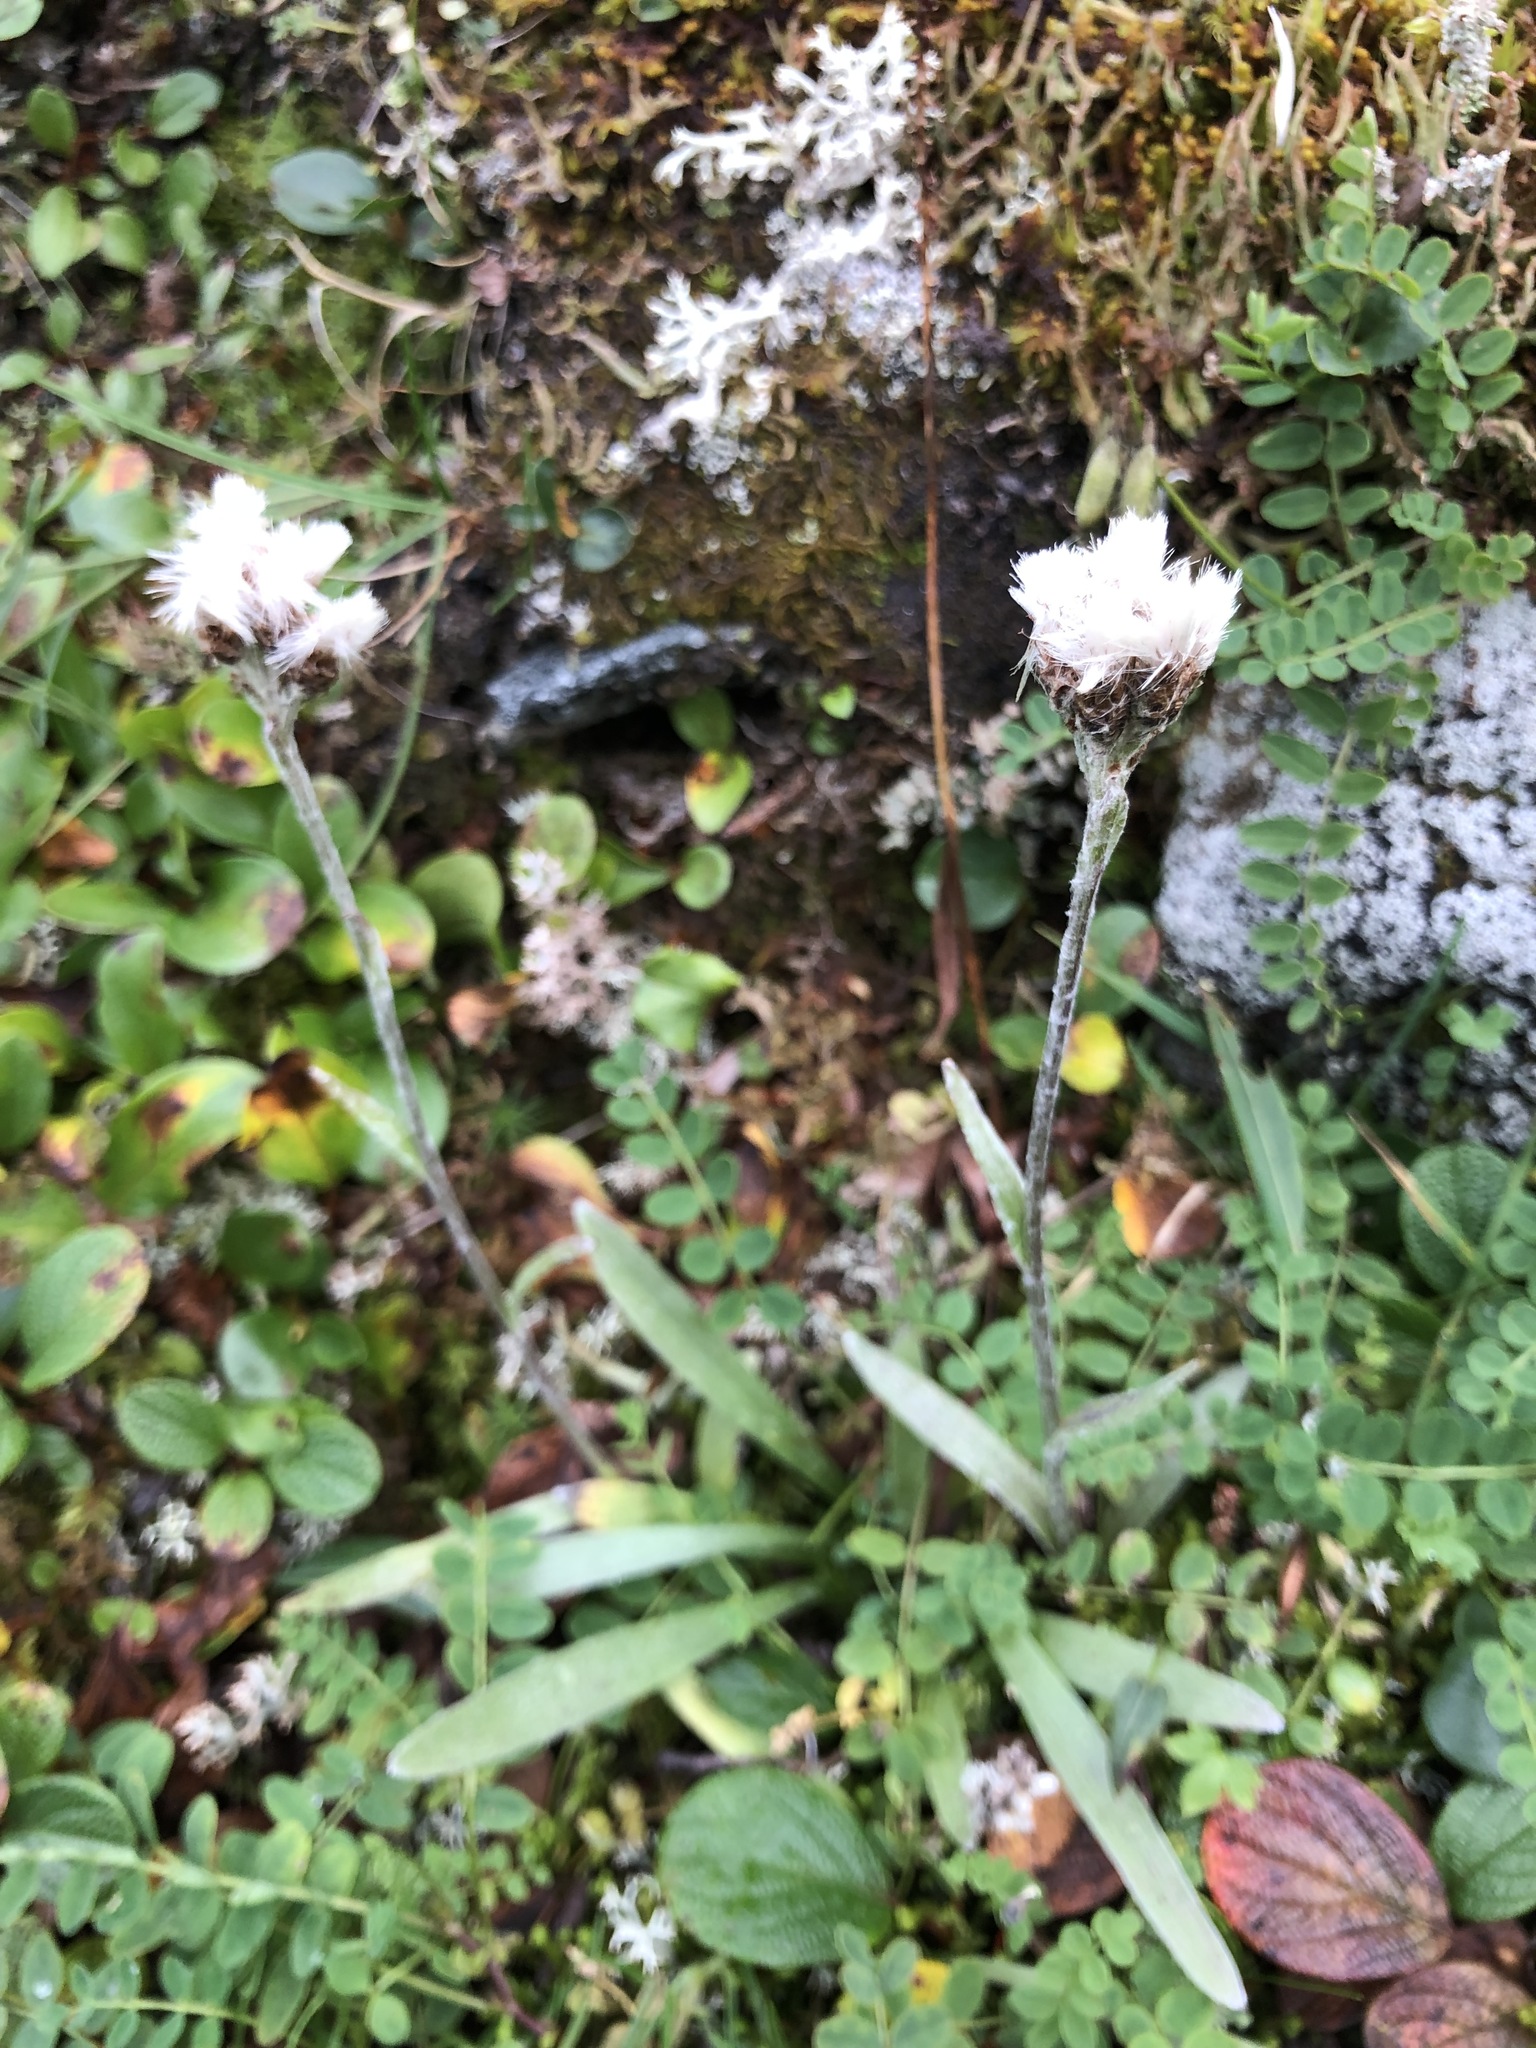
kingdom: Plantae
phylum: Tracheophyta
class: Magnoliopsida
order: Asterales
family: Asteraceae
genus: Antennaria
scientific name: Antennaria lanata
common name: Woolly pussytoes
